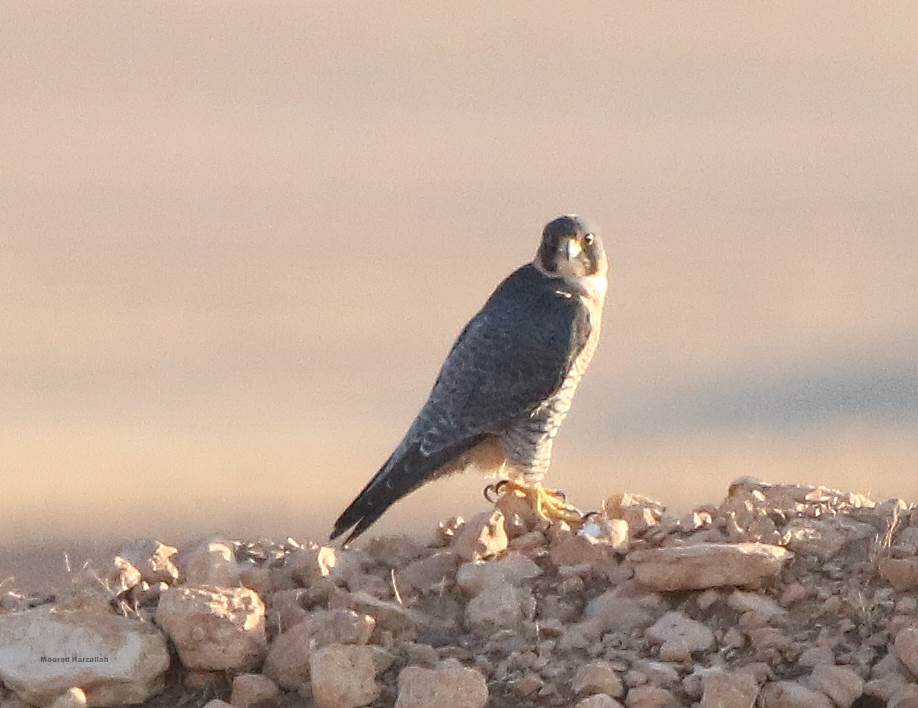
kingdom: Animalia
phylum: Chordata
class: Aves
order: Falconiformes
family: Falconidae
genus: Falco
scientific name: Falco peregrinus
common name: Peregrine falcon
